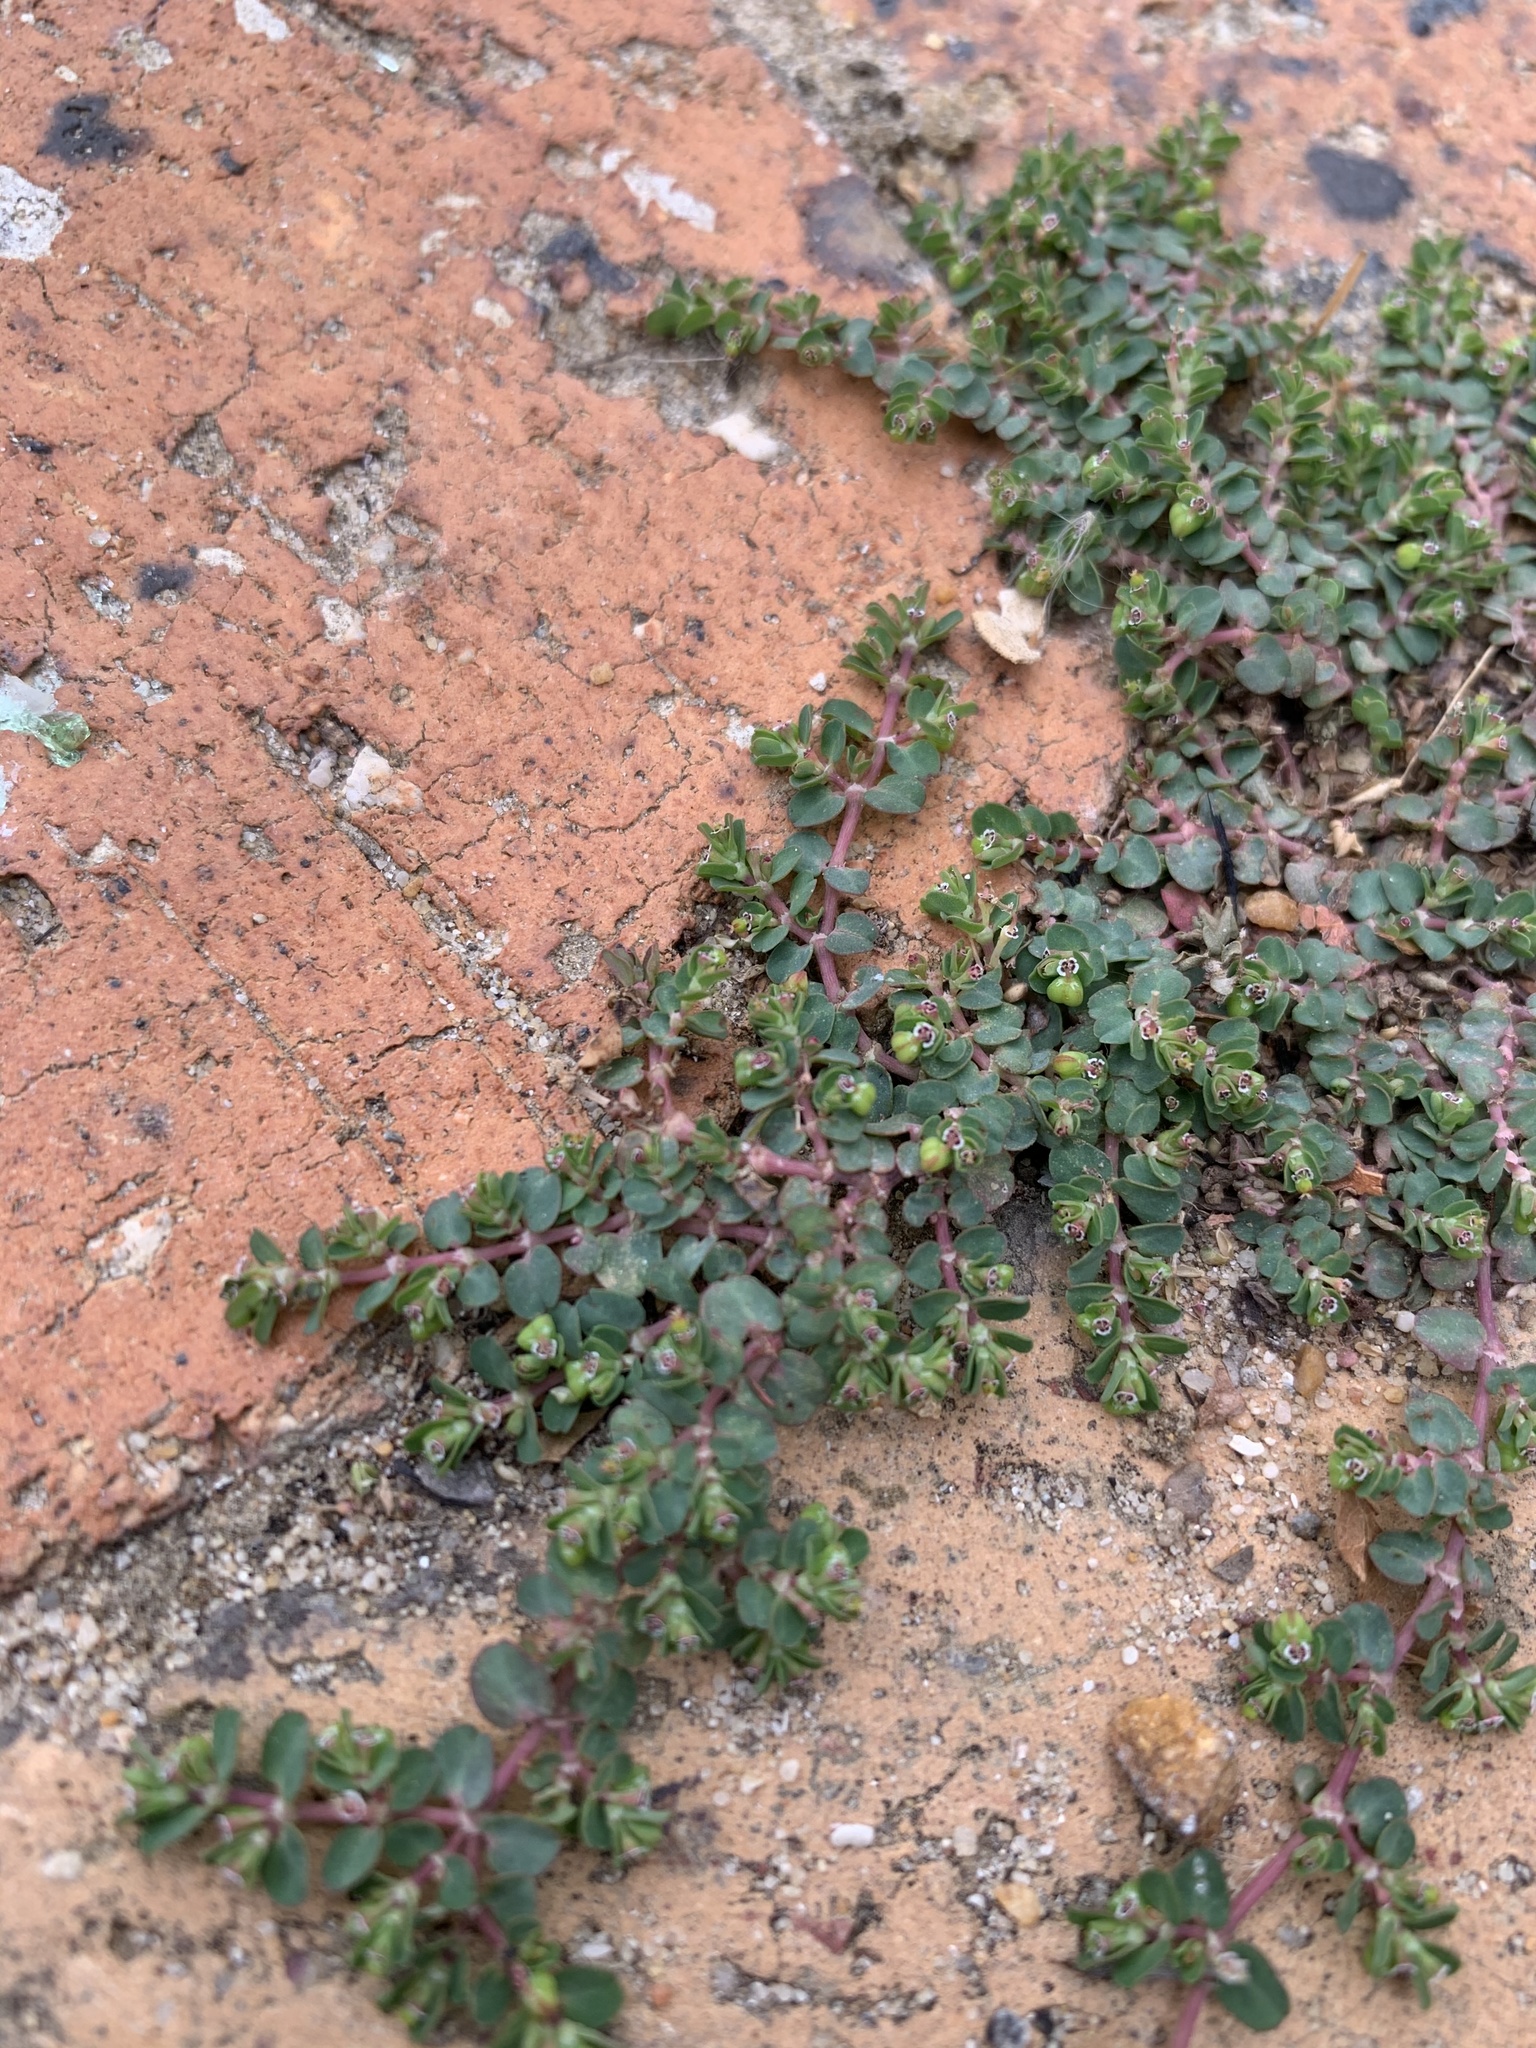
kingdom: Plantae
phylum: Tracheophyta
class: Magnoliopsida
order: Malpighiales
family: Euphorbiaceae
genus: Euphorbia
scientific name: Euphorbia serpens
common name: Matted sandmat
